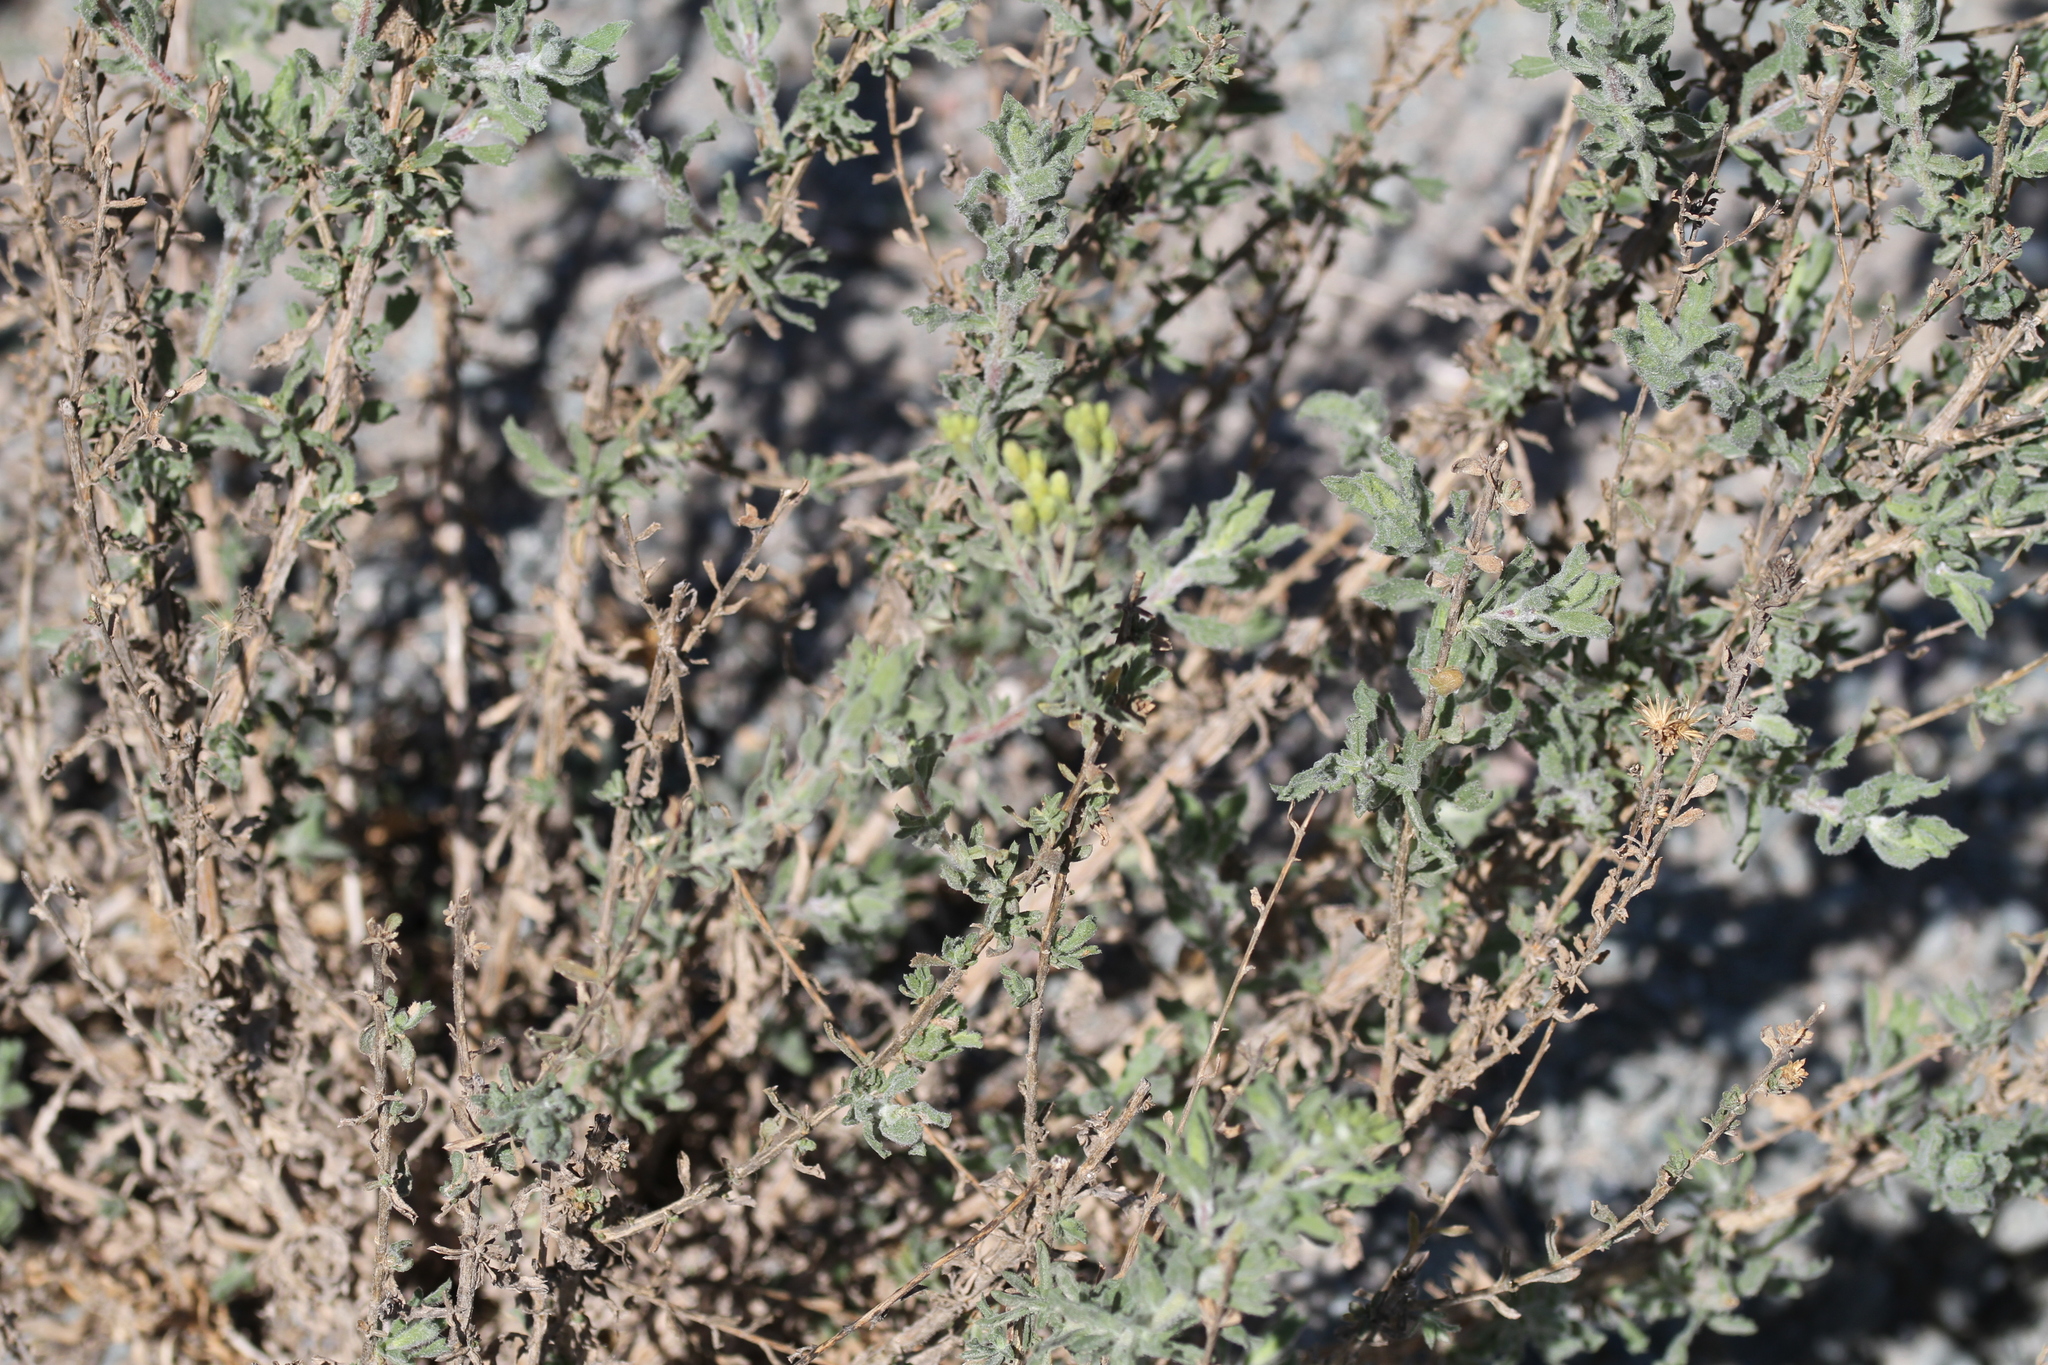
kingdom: Plantae
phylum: Tracheophyta
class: Magnoliopsida
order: Asterales
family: Asteraceae
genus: Isocoma
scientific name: Isocoma menziesii
